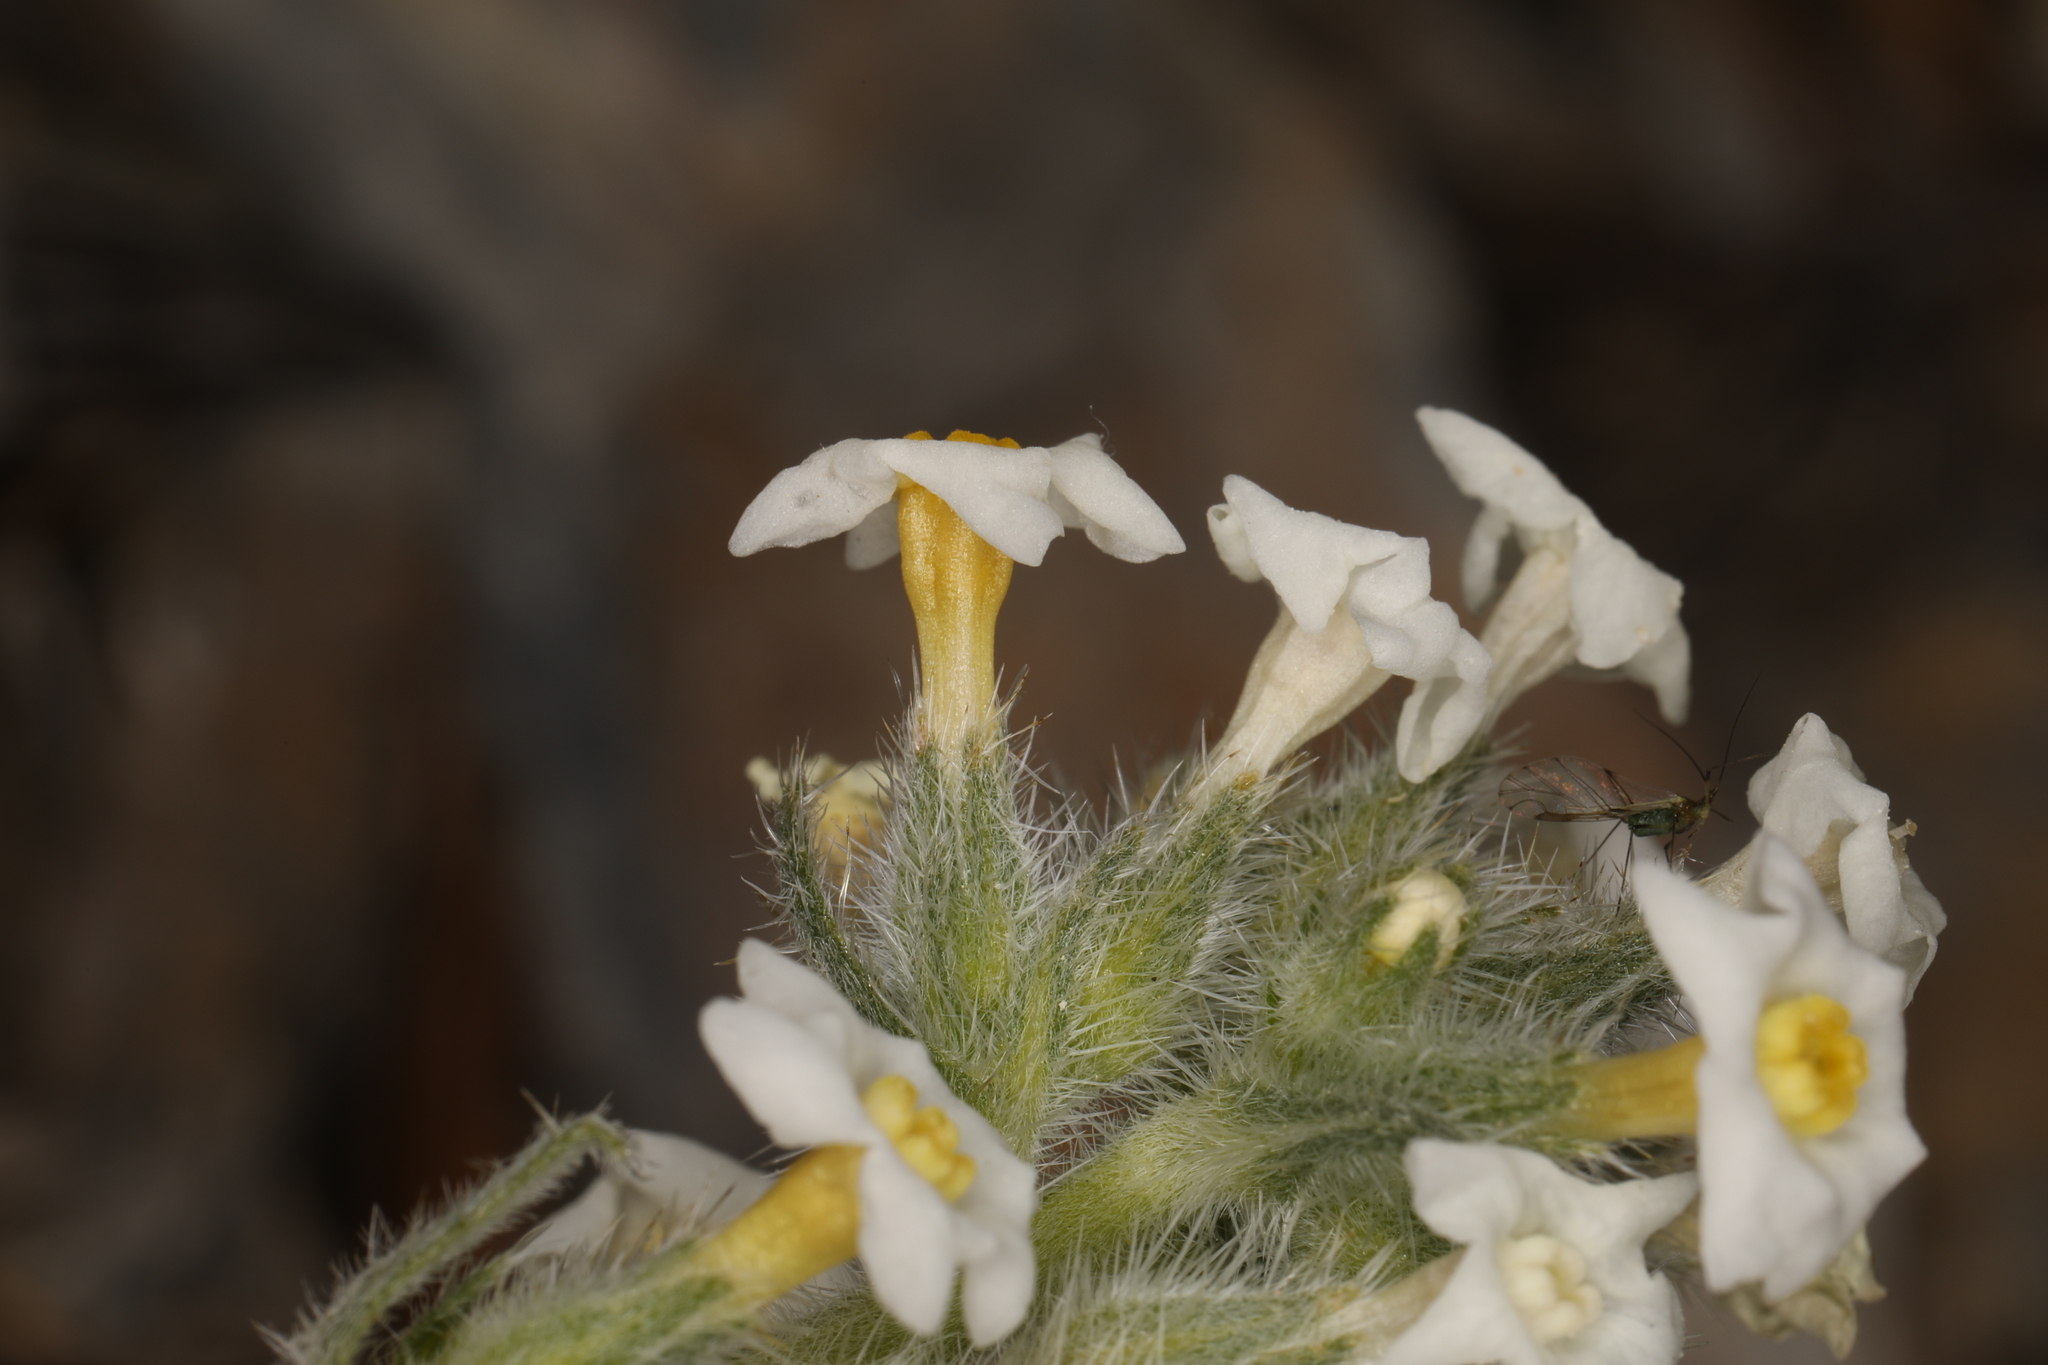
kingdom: Plantae
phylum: Tracheophyta
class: Magnoliopsida
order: Boraginales
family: Boraginaceae
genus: Oreocarya
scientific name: Oreocarya flavoculata
